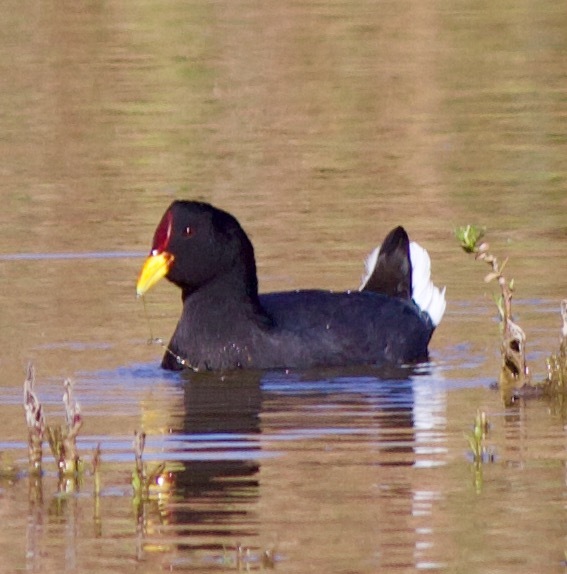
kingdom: Animalia
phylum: Chordata
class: Aves
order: Gruiformes
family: Rallidae
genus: Fulica
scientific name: Fulica rufifrons
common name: Red-fronted coot
